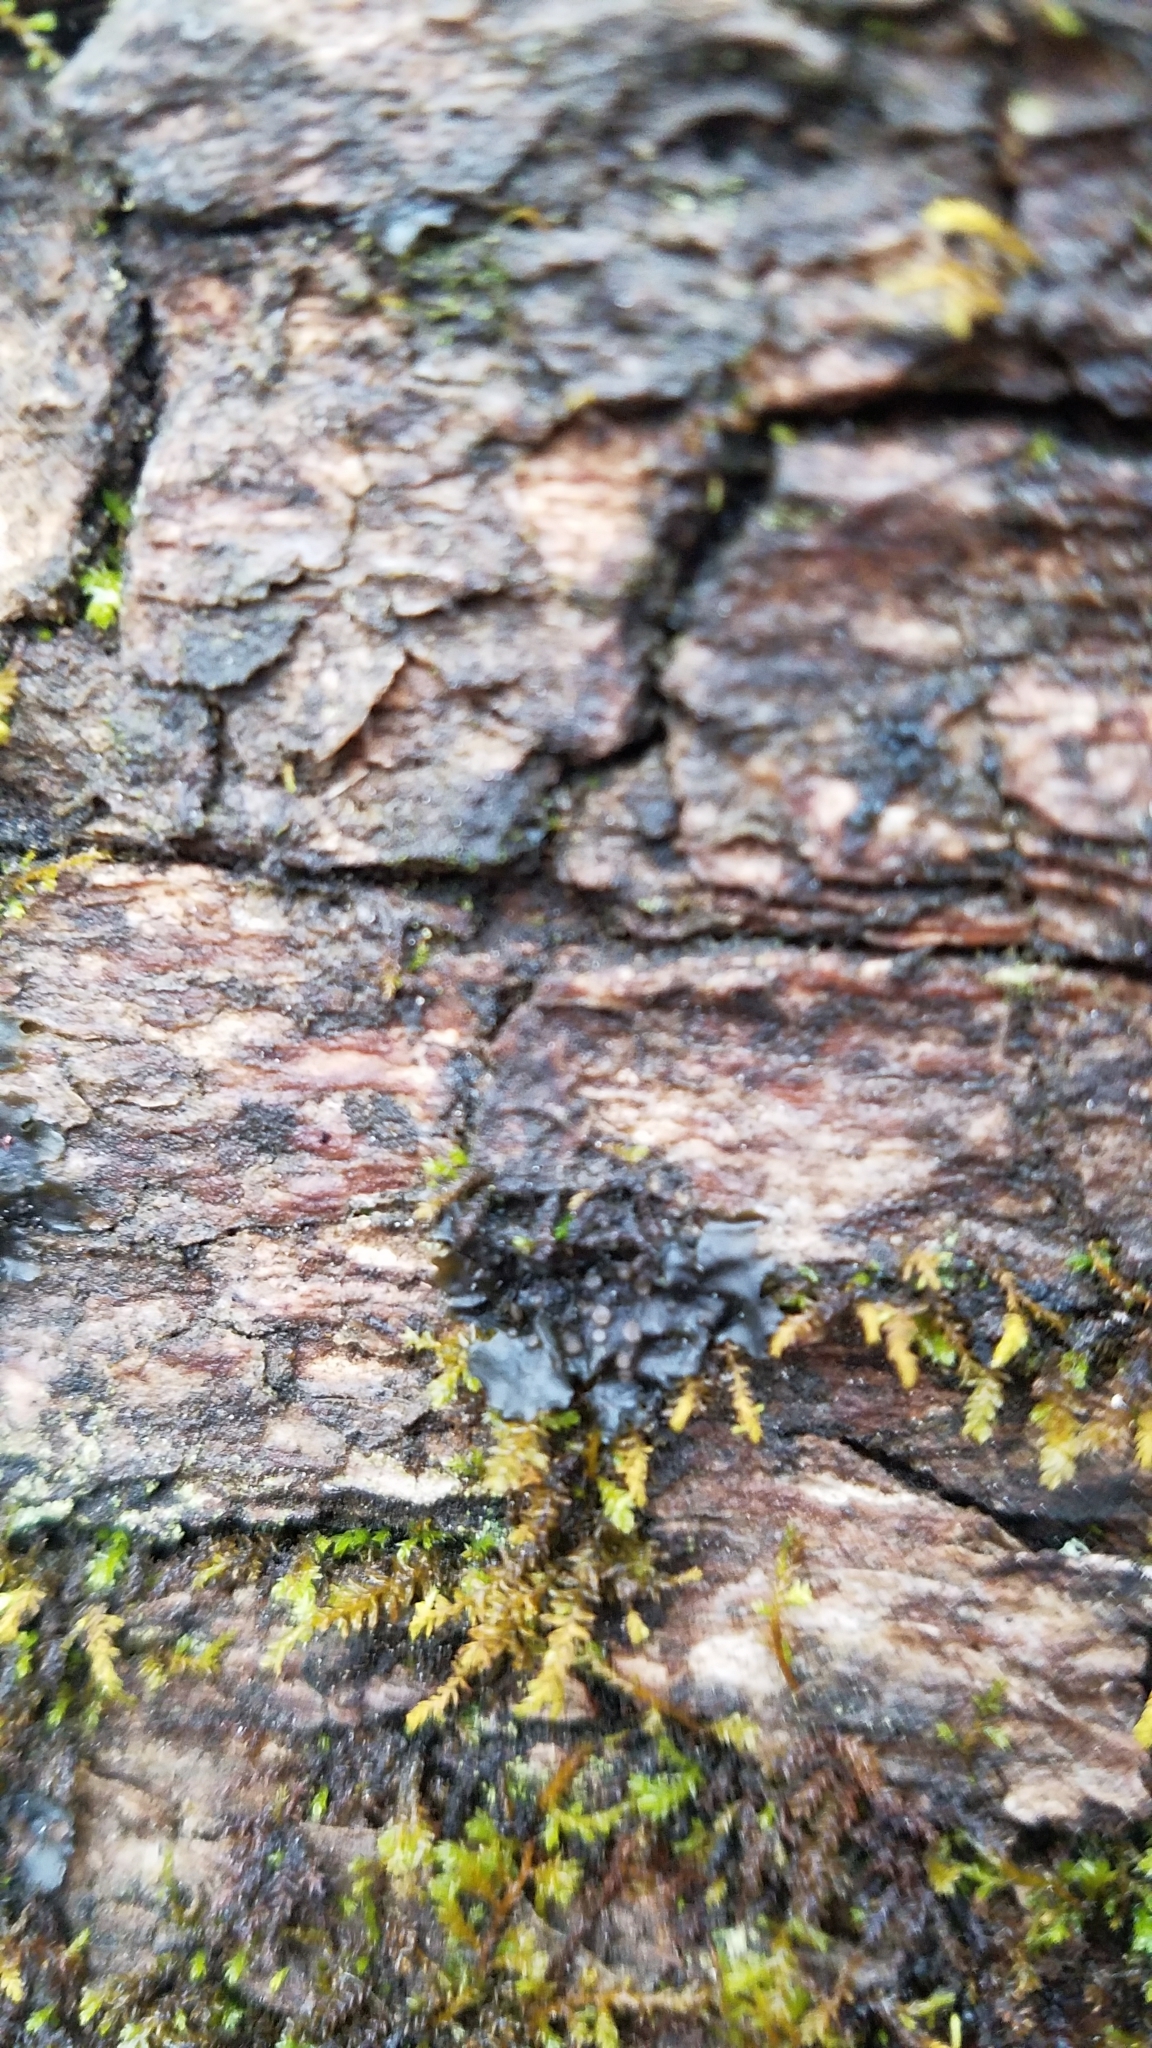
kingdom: Fungi
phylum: Ascomycota
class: Lecanoromycetes
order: Peltigerales
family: Collemataceae
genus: Leptogium
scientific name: Leptogium rivulare
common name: Flooded jellyskin lichen
